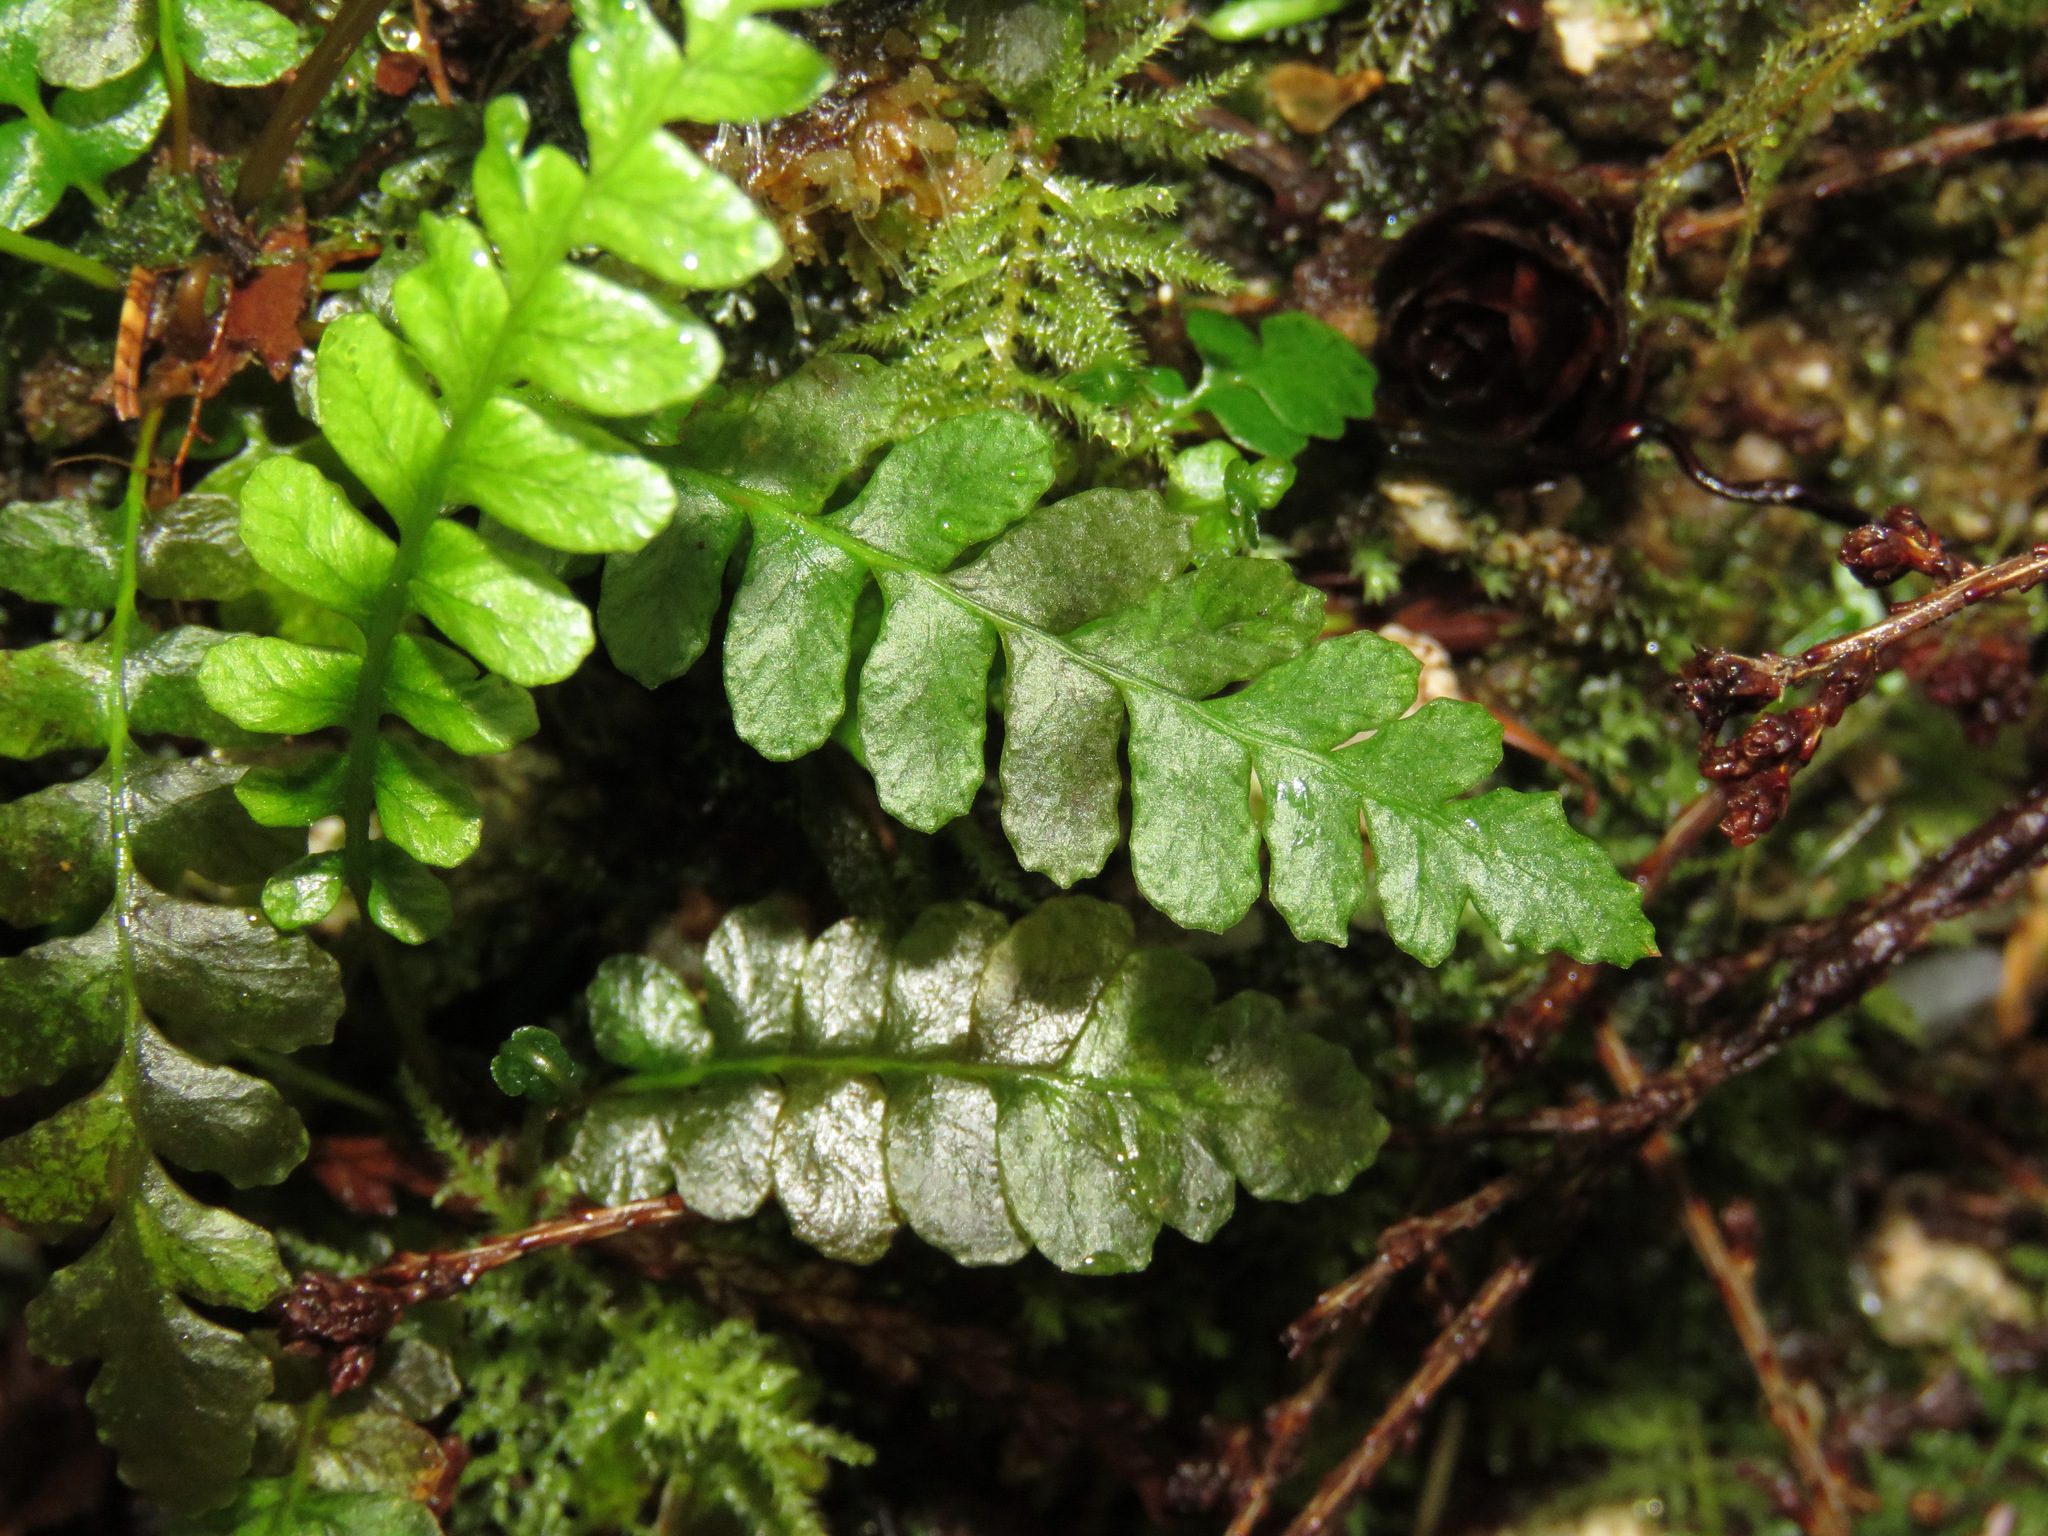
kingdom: Plantae
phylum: Tracheophyta
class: Polypodiopsida
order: Polypodiales
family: Blechnaceae
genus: Struthiopteris
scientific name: Struthiopteris spicant
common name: Deer fern
